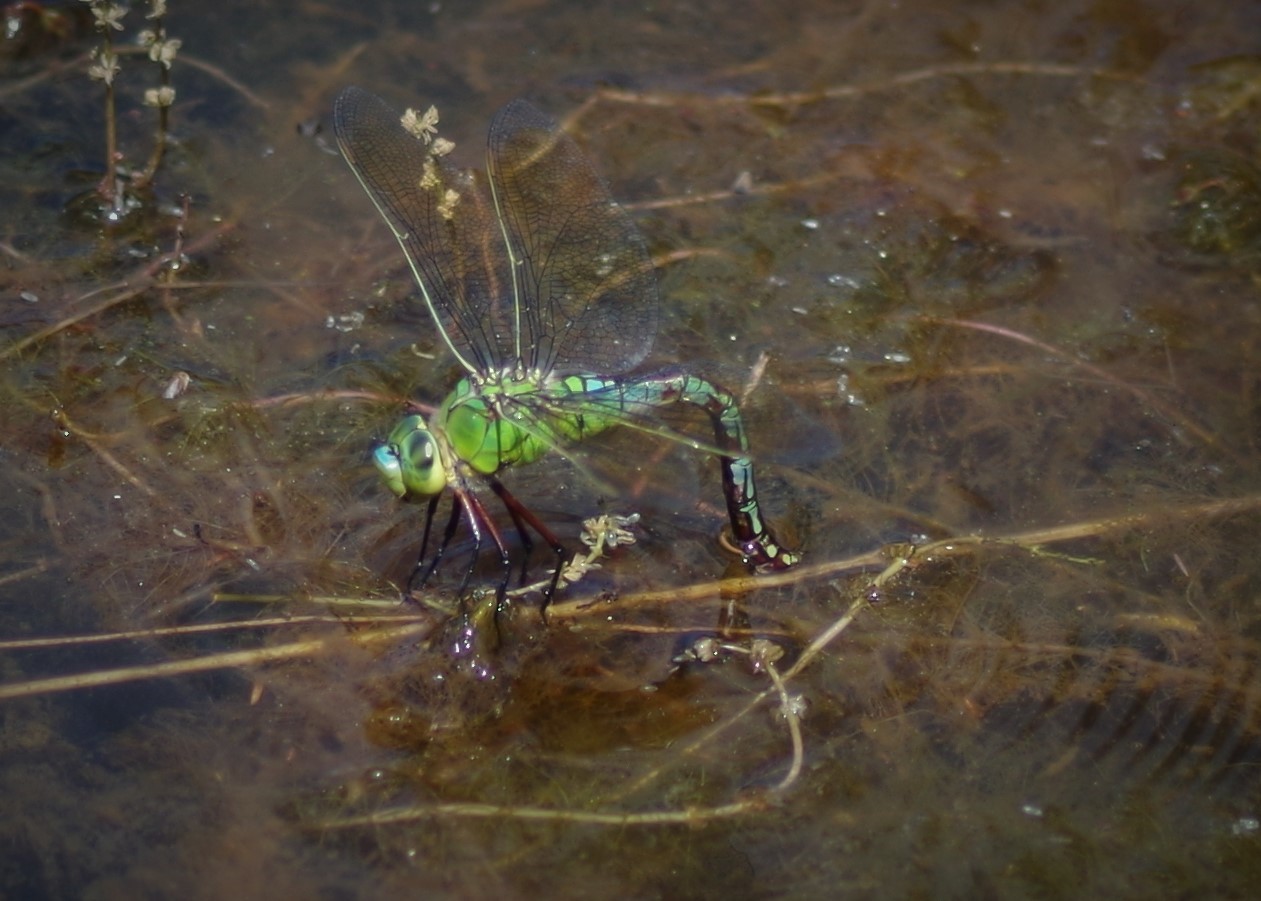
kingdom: Animalia
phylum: Arthropoda
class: Insecta
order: Odonata
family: Aeshnidae
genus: Anax
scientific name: Anax imperator
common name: Emperor dragonfly
